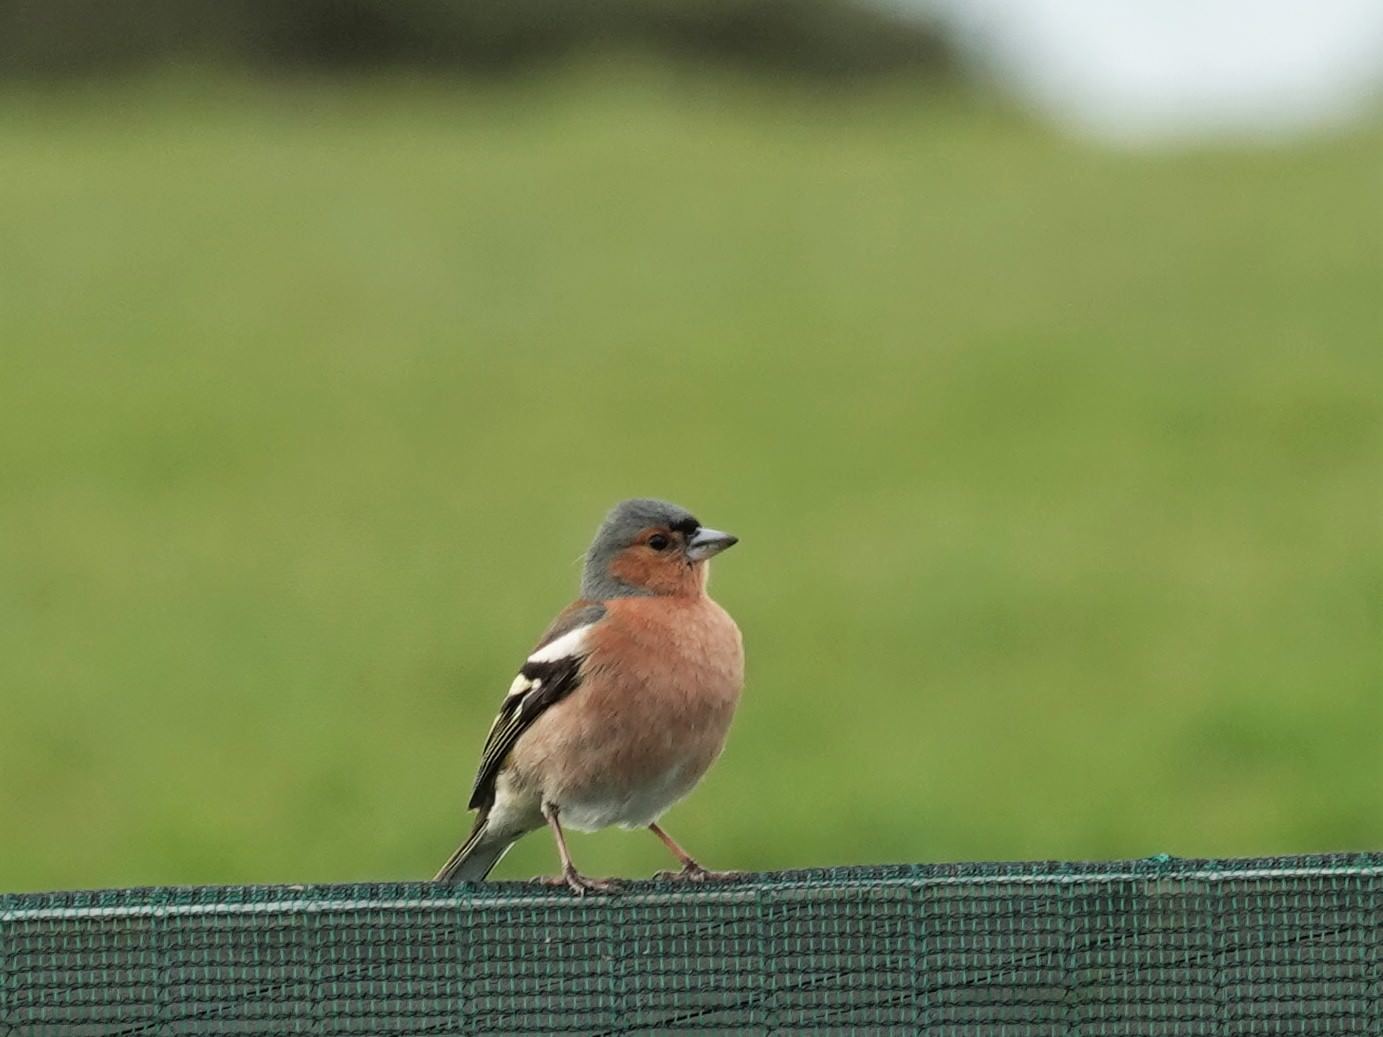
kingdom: Animalia
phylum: Chordata
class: Aves
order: Passeriformes
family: Fringillidae
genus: Fringilla
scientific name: Fringilla coelebs
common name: Common chaffinch
